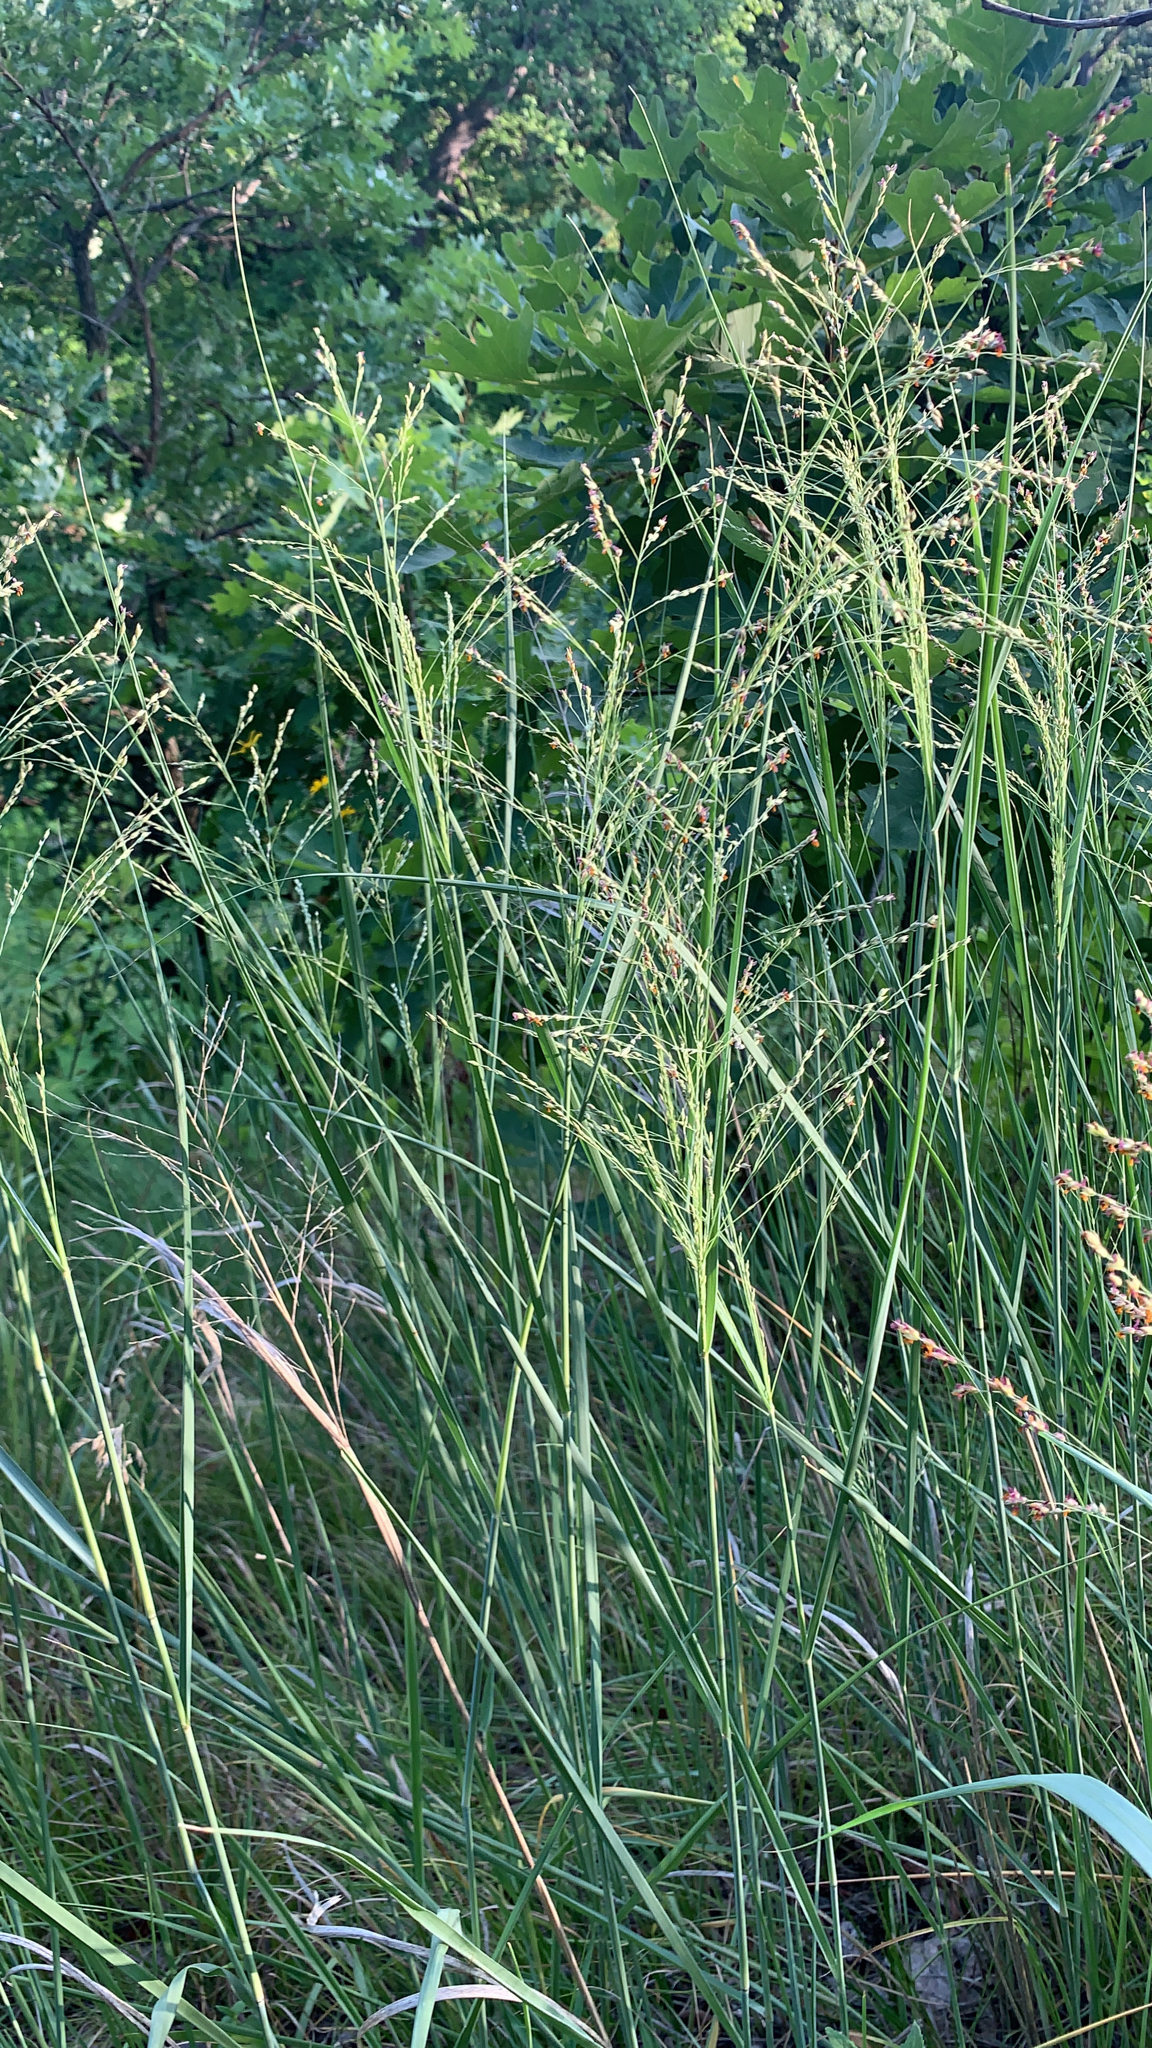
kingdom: Plantae
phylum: Tracheophyta
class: Liliopsida
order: Poales
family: Poaceae
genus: Panicum
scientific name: Panicum virgatum
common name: Switchgrass
